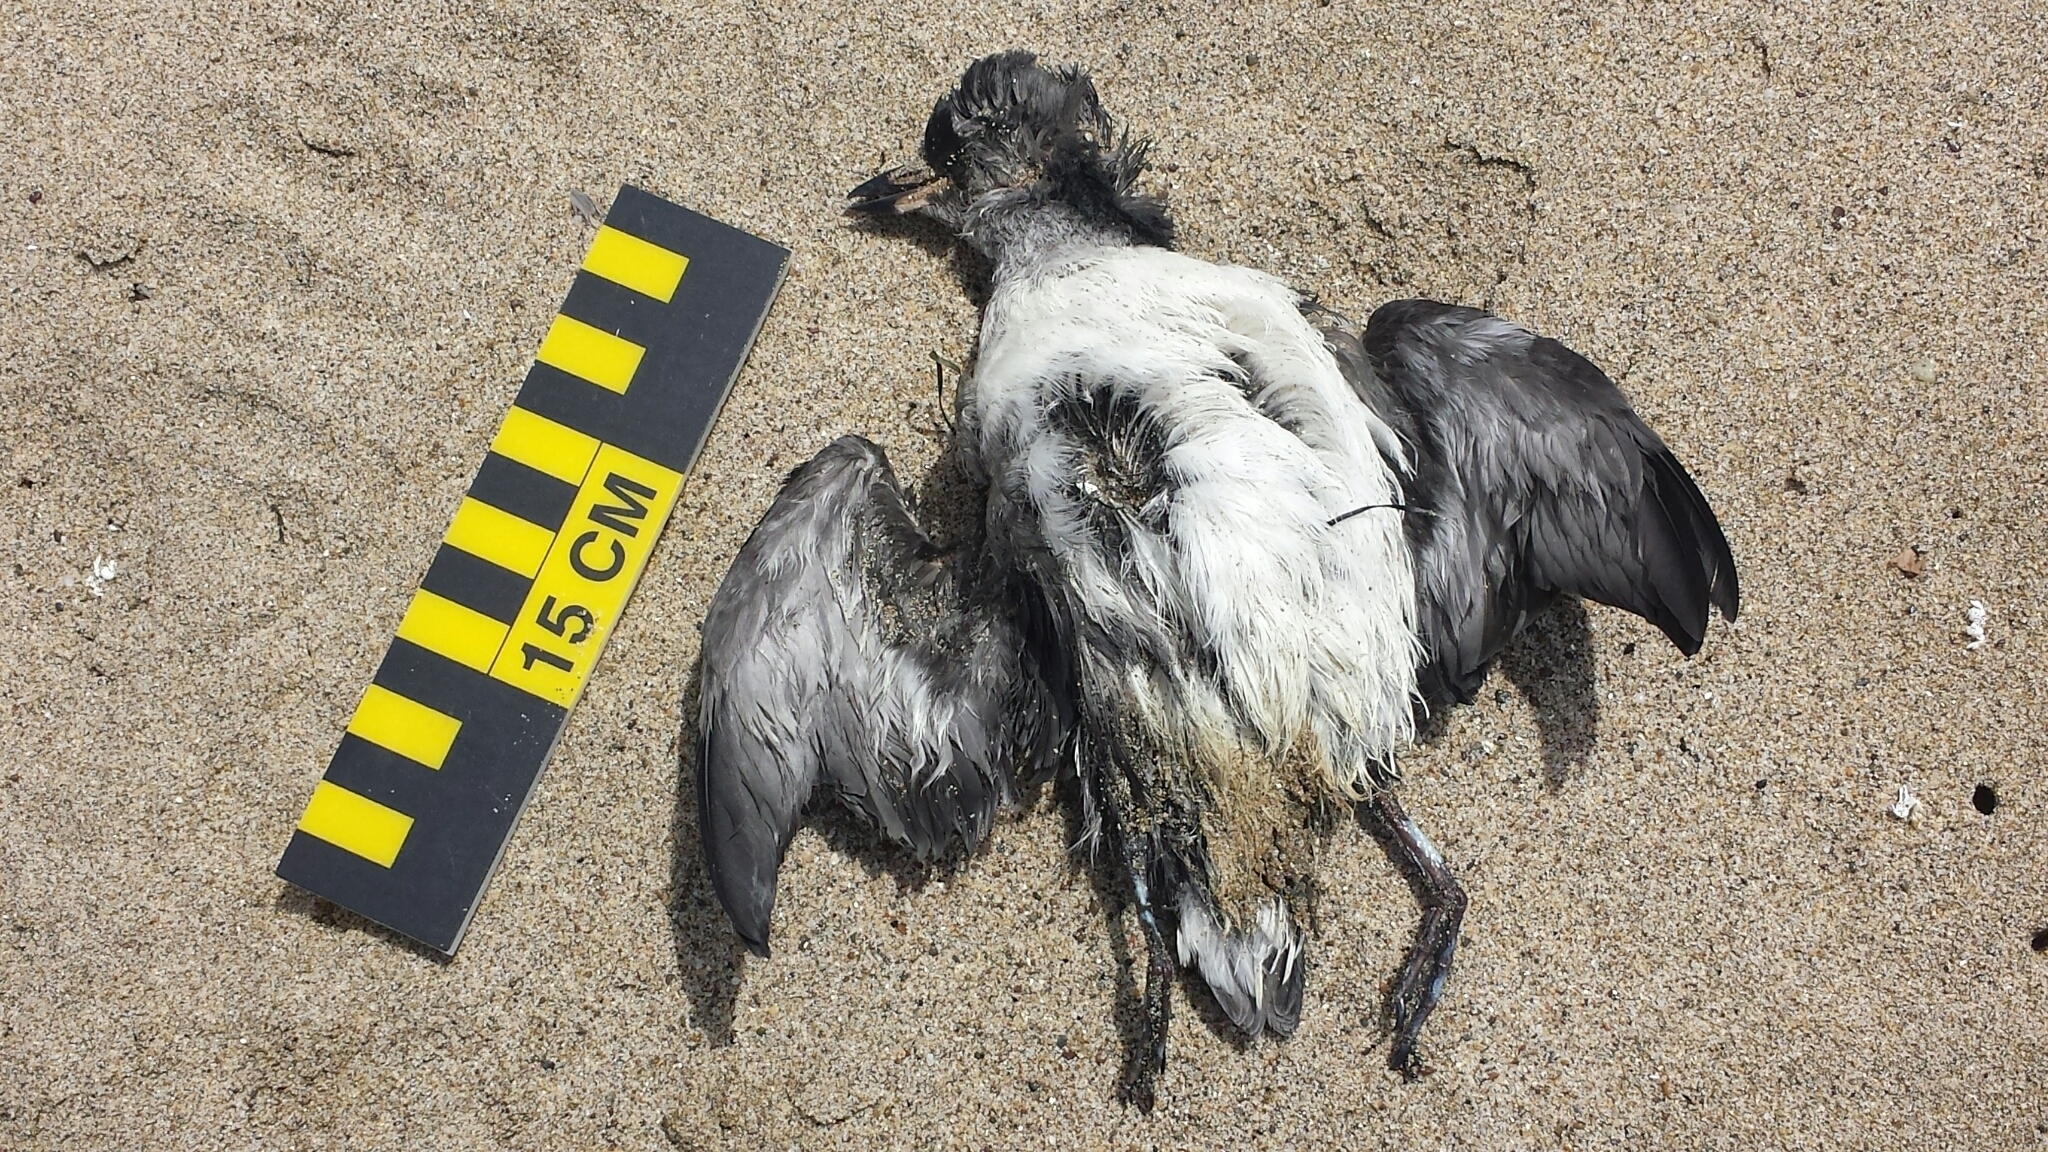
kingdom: Animalia
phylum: Chordata
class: Aves
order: Charadriiformes
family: Alcidae
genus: Ptychoramphus
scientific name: Ptychoramphus aleuticus
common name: Cassin's auklet
